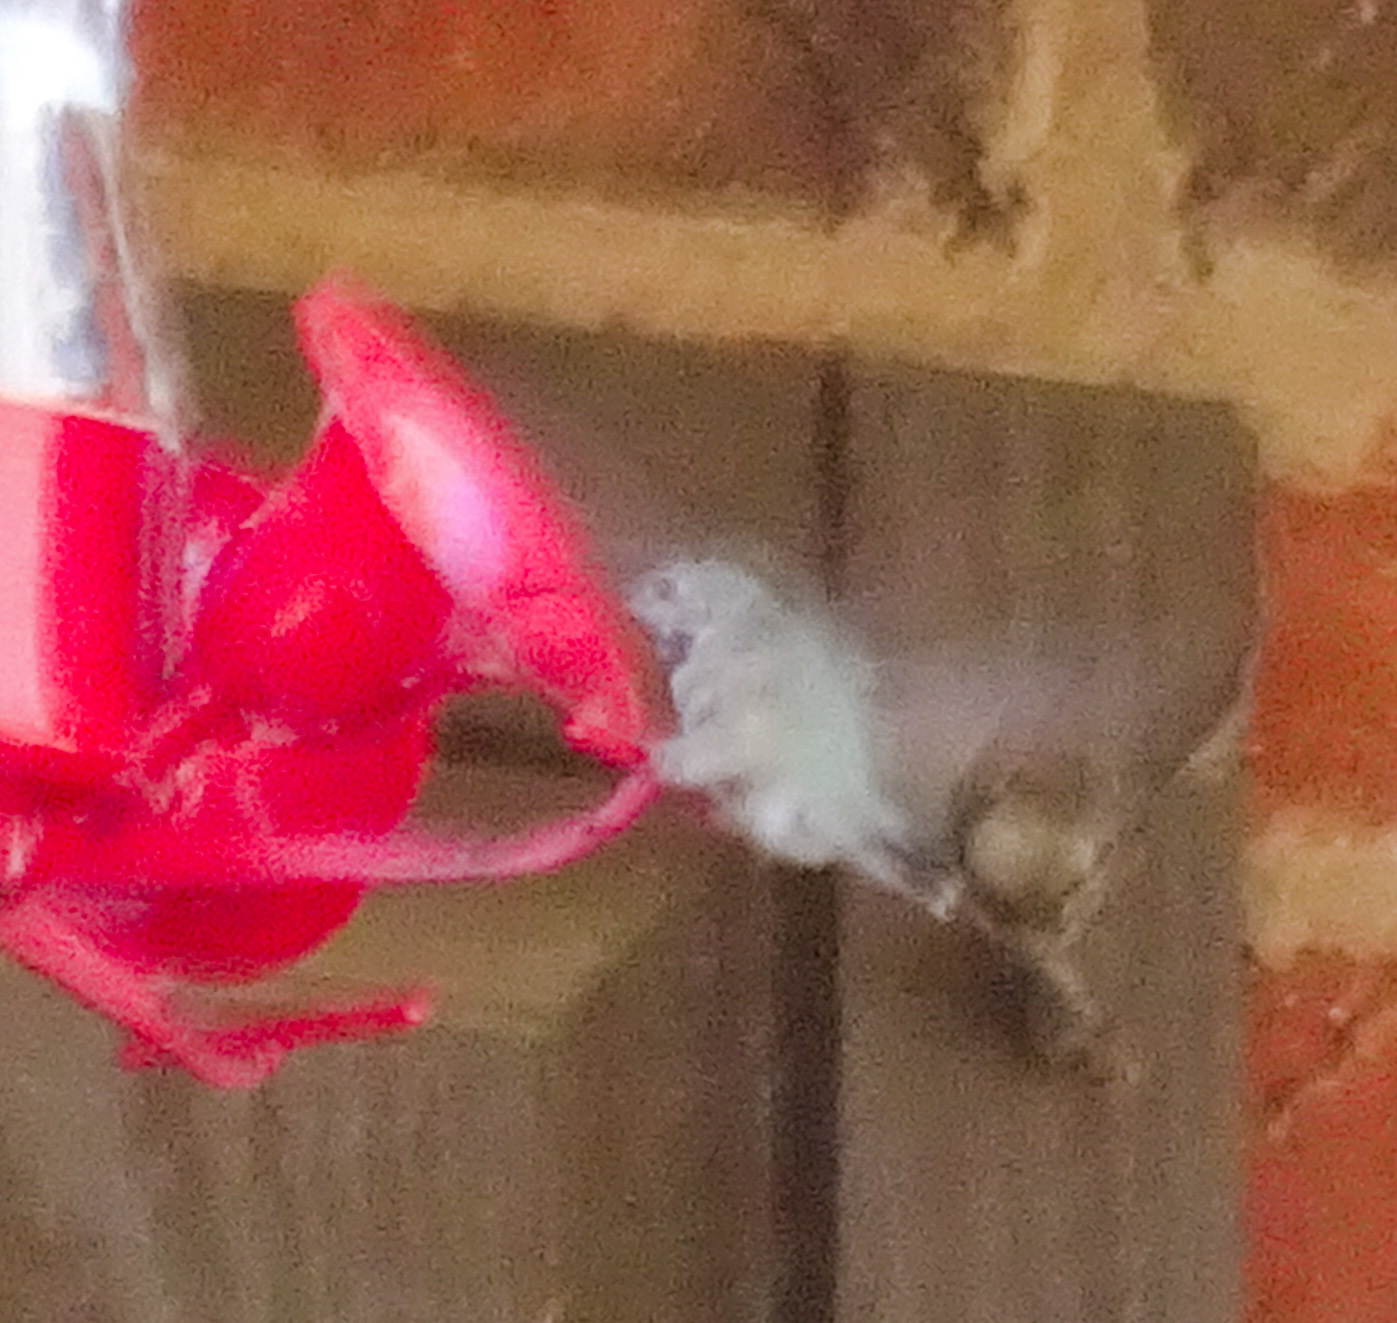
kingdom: Animalia
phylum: Chordata
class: Aves
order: Apodiformes
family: Trochilidae
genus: Selasphorus
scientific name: Selasphorus calliope
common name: Calliope hummingbird
